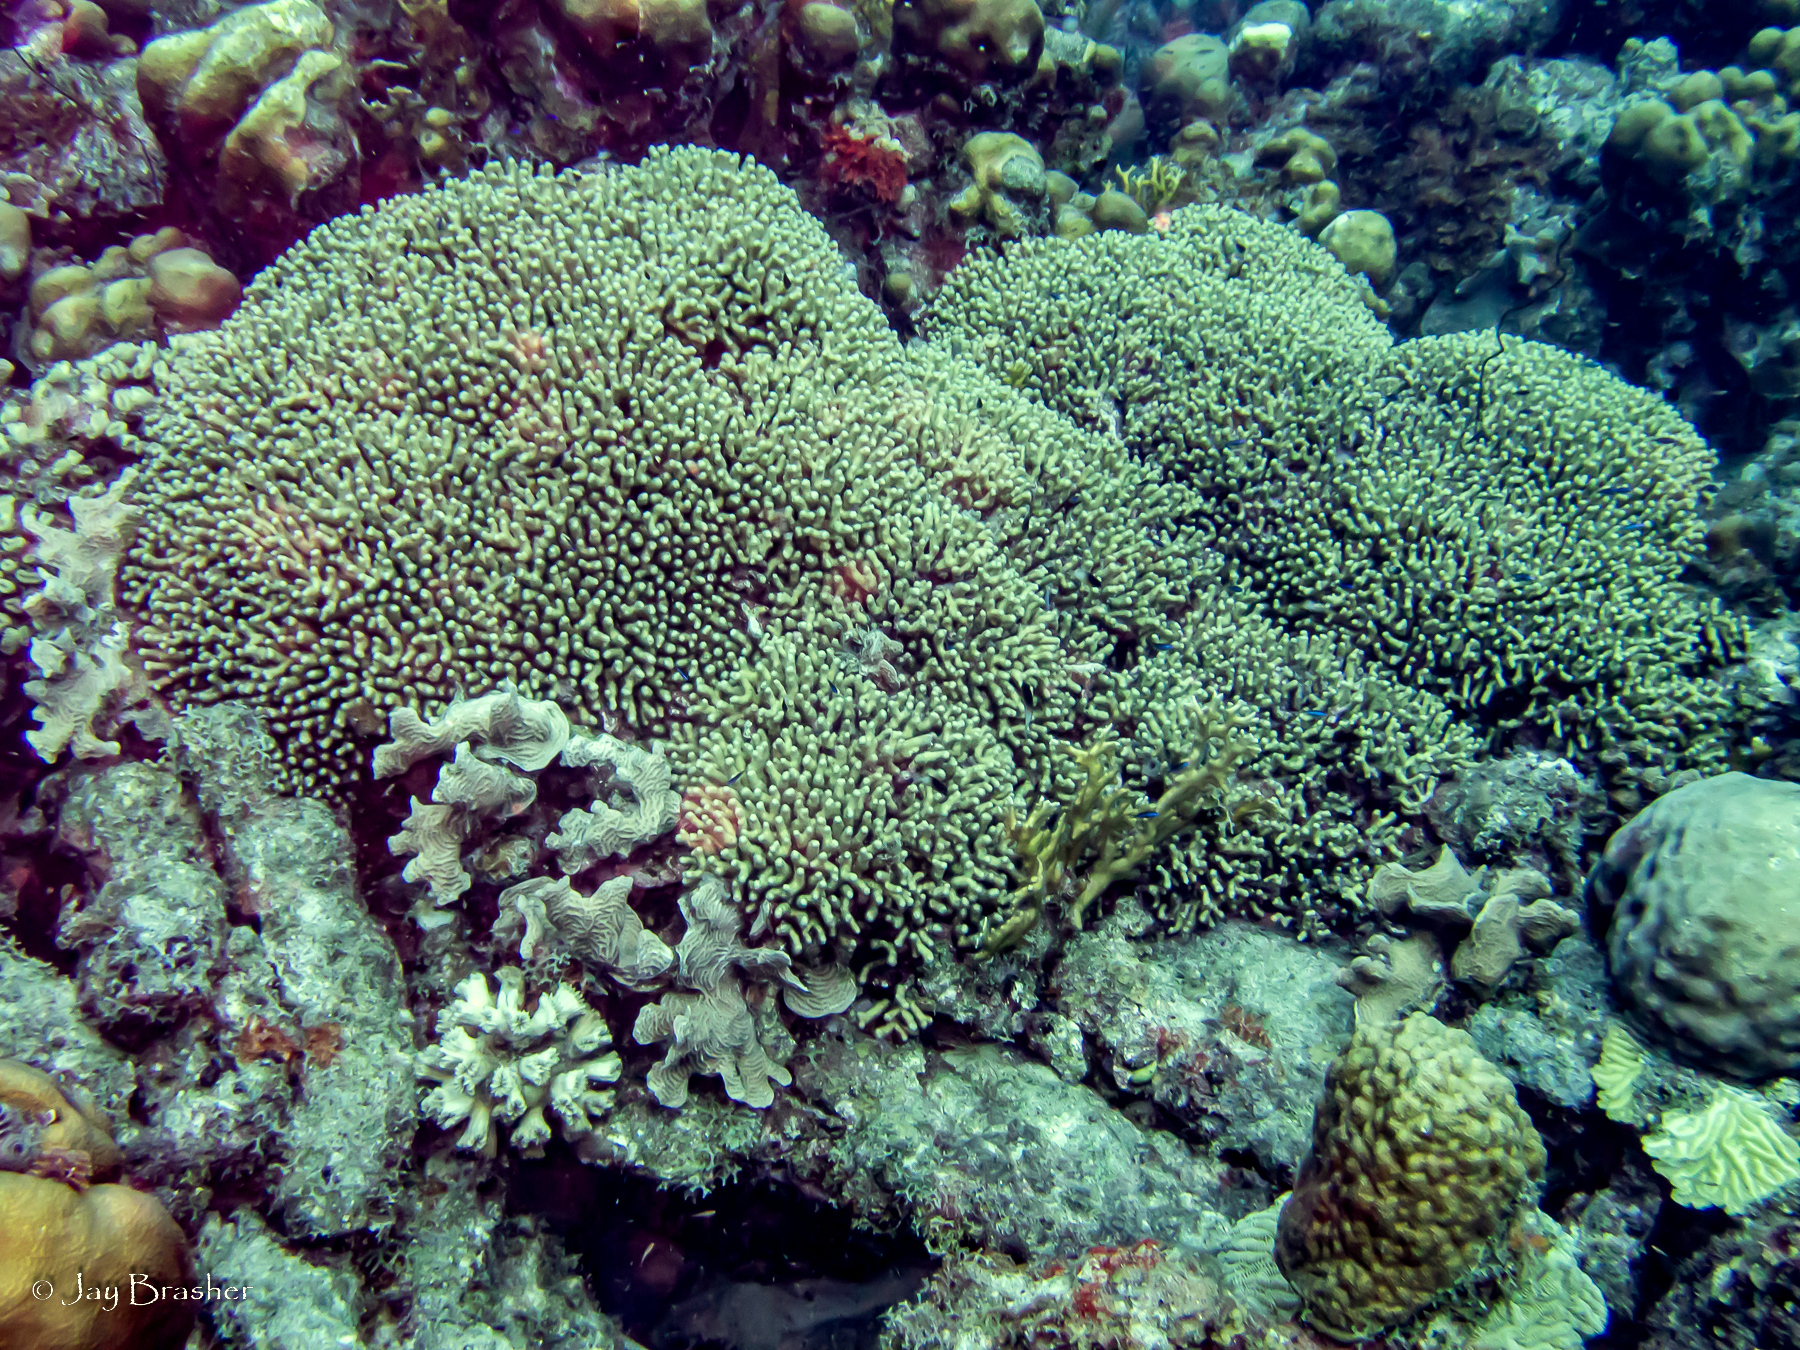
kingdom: Animalia
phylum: Cnidaria
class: Anthozoa
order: Scleractinia
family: Agariciidae
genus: Agaricia
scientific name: Agaricia agaricites
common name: Lettuce coral
